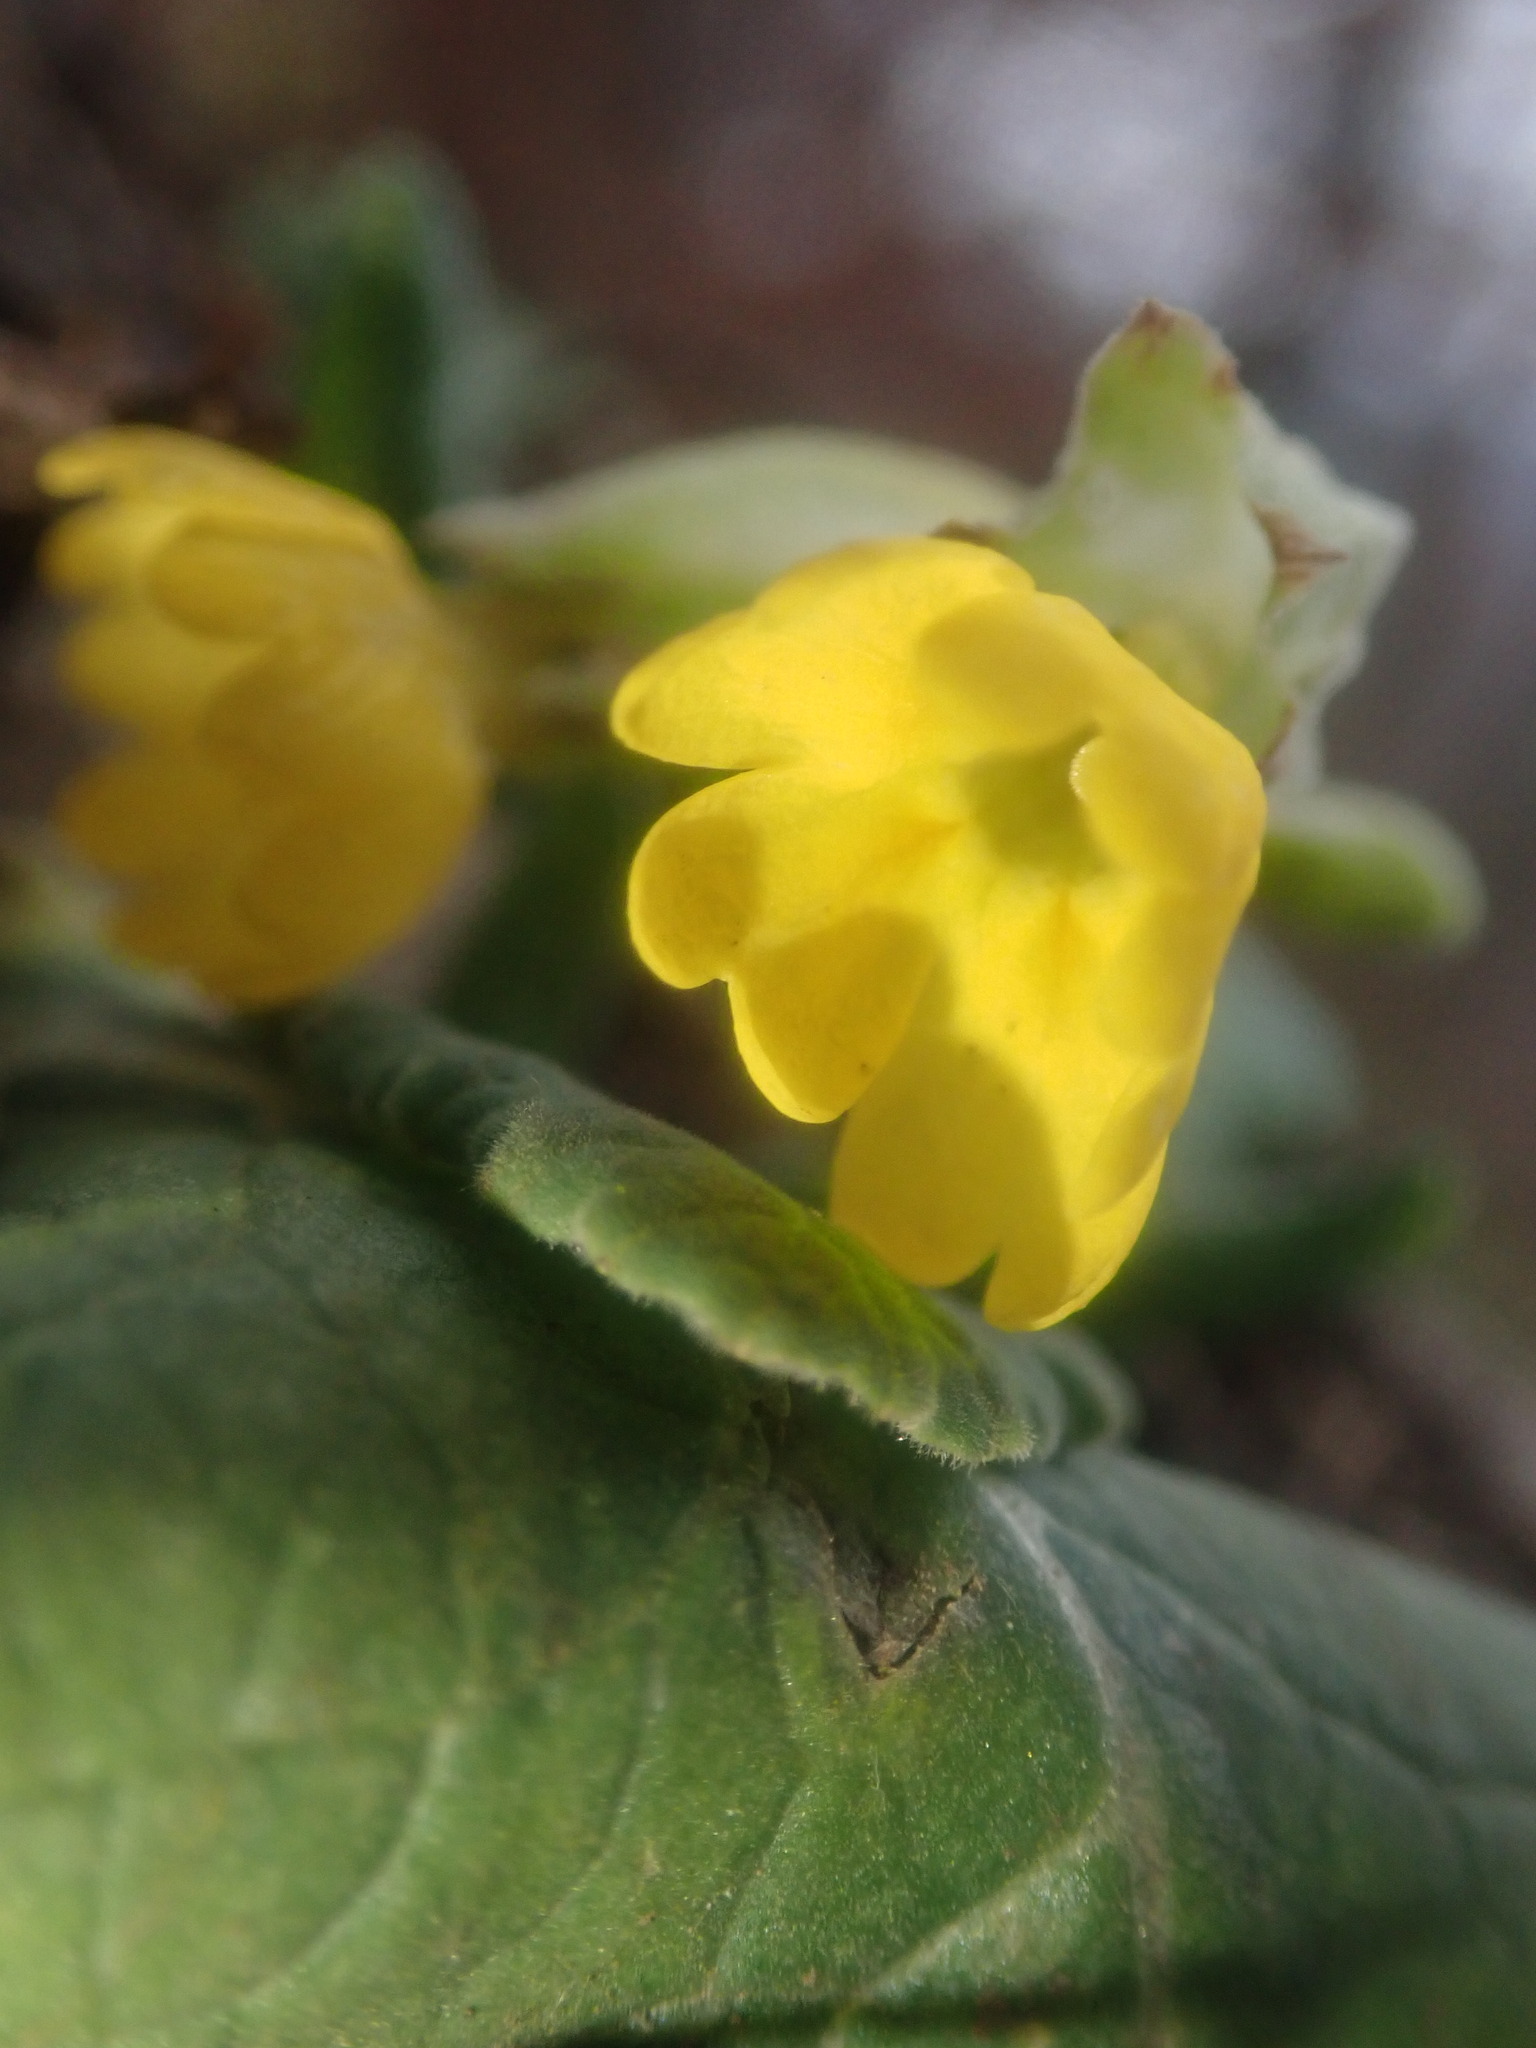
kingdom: Plantae
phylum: Tracheophyta
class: Magnoliopsida
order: Ericales
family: Primulaceae
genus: Primula
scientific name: Primula veris
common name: Cowslip
